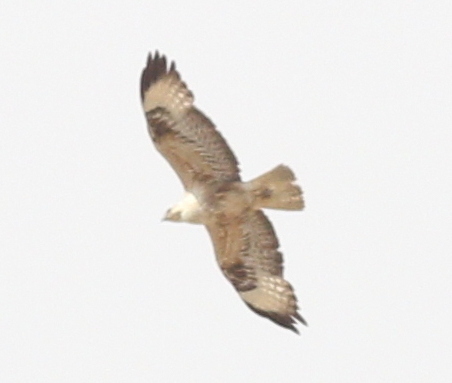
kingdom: Animalia
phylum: Chordata
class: Aves
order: Accipitriformes
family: Accipitridae
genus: Buteo
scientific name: Buteo rufinus
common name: Long-legged buzzard
